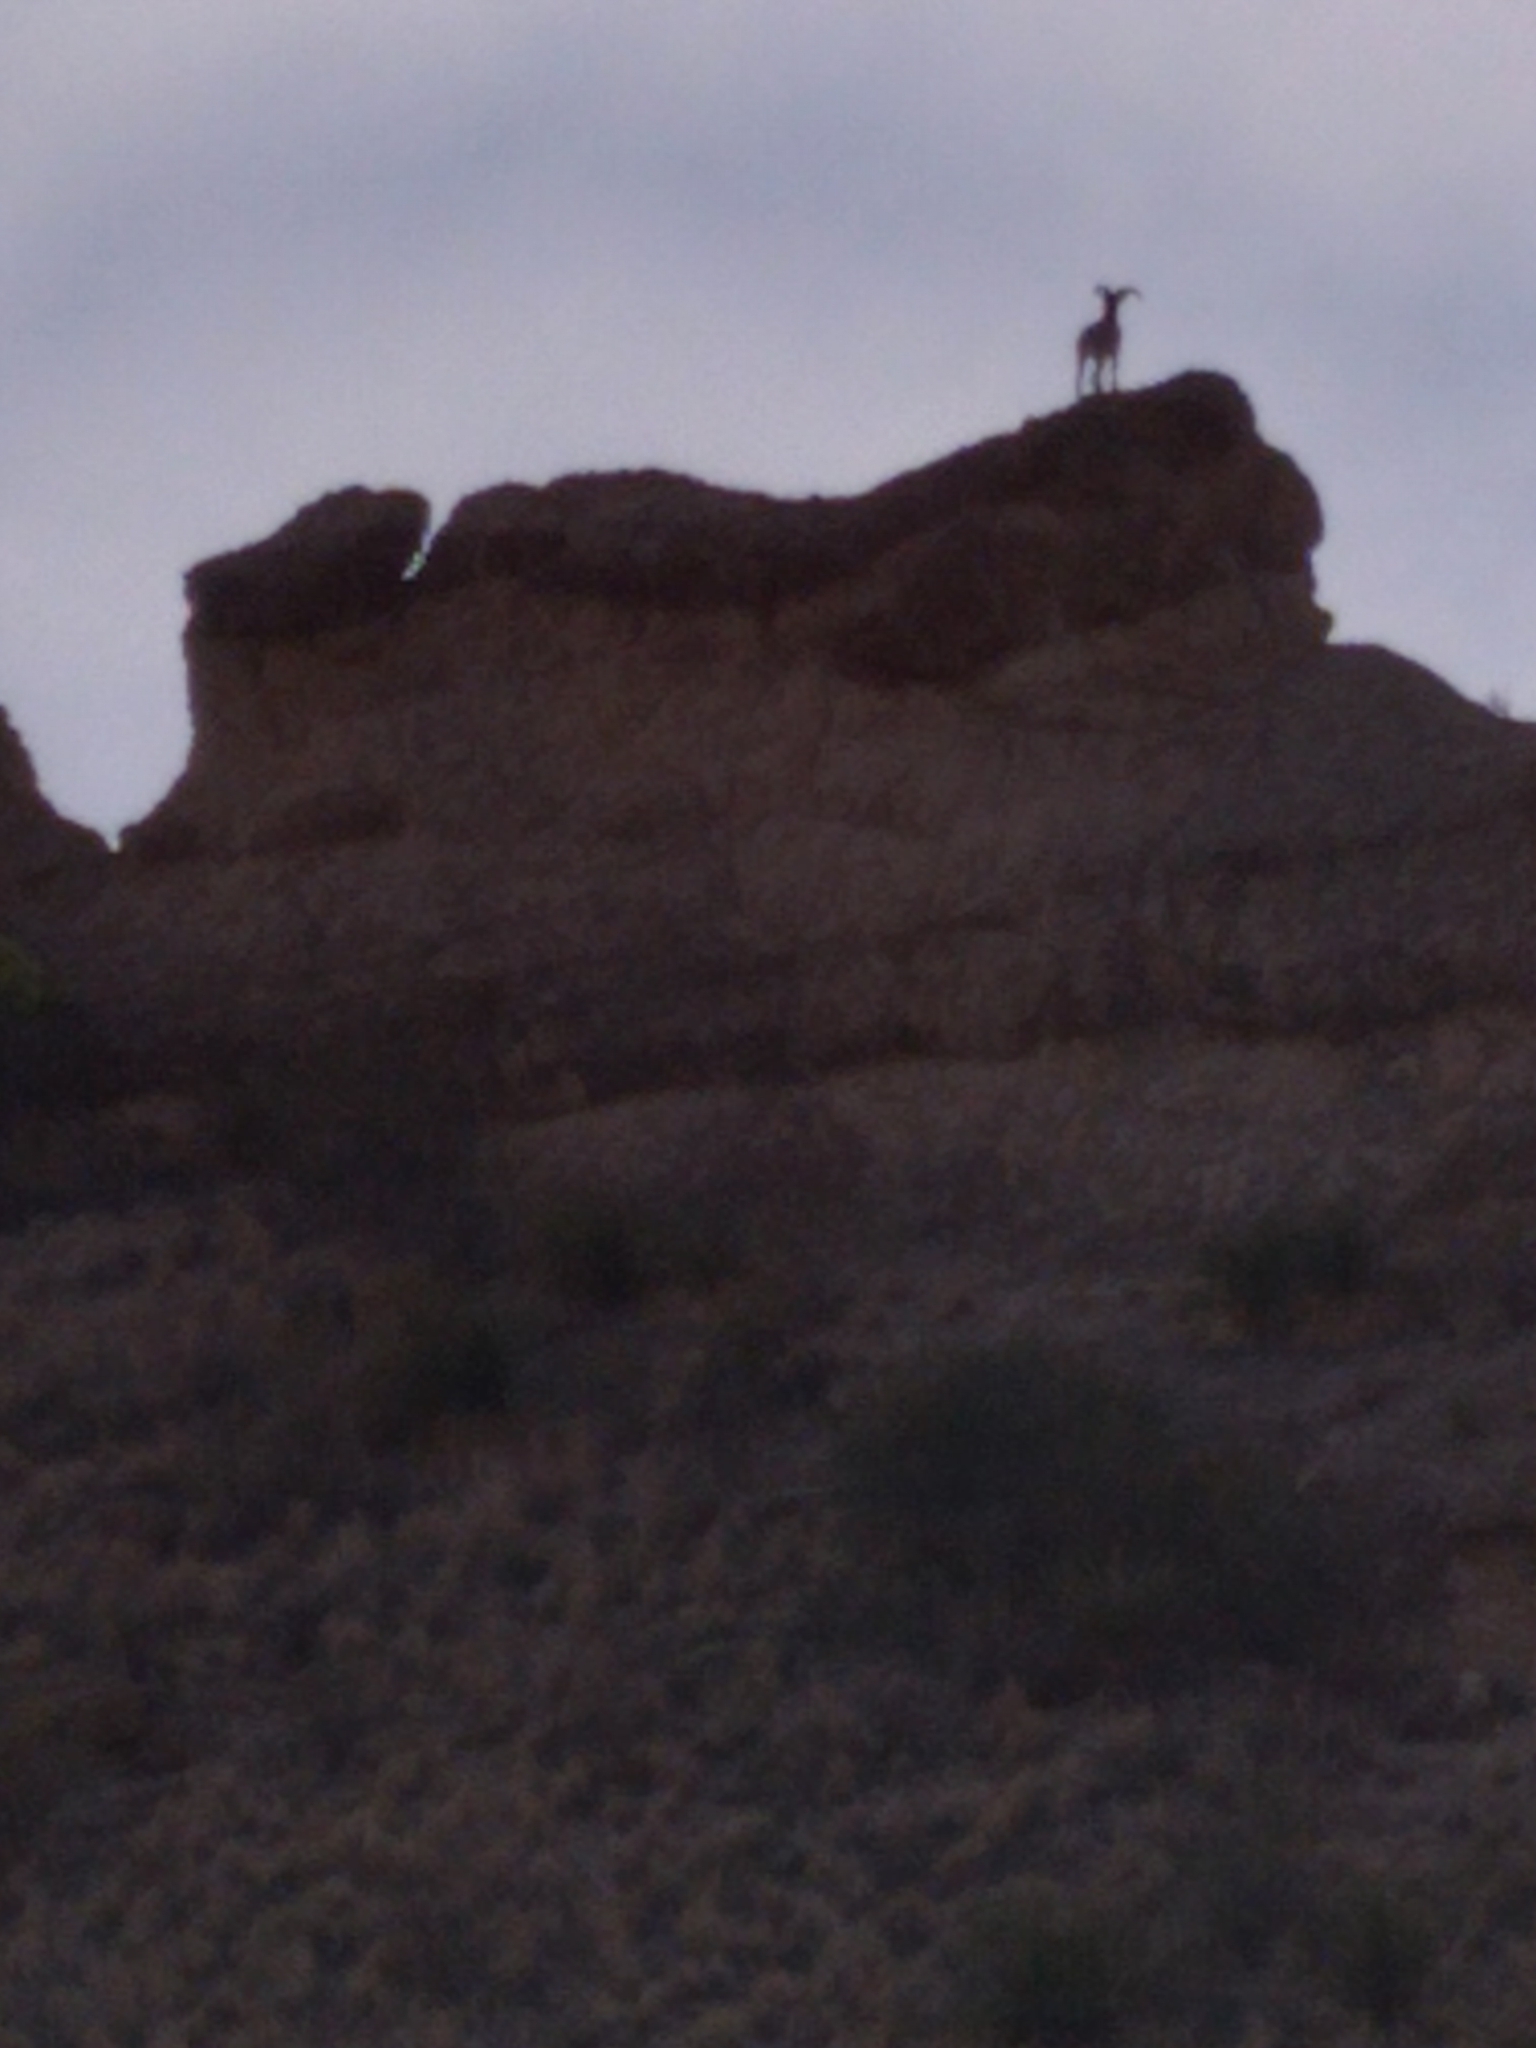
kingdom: Animalia
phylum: Chordata
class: Mammalia
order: Artiodactyla
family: Bovidae
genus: Ammotragus
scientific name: Ammotragus lervia
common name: Barbary sheep
